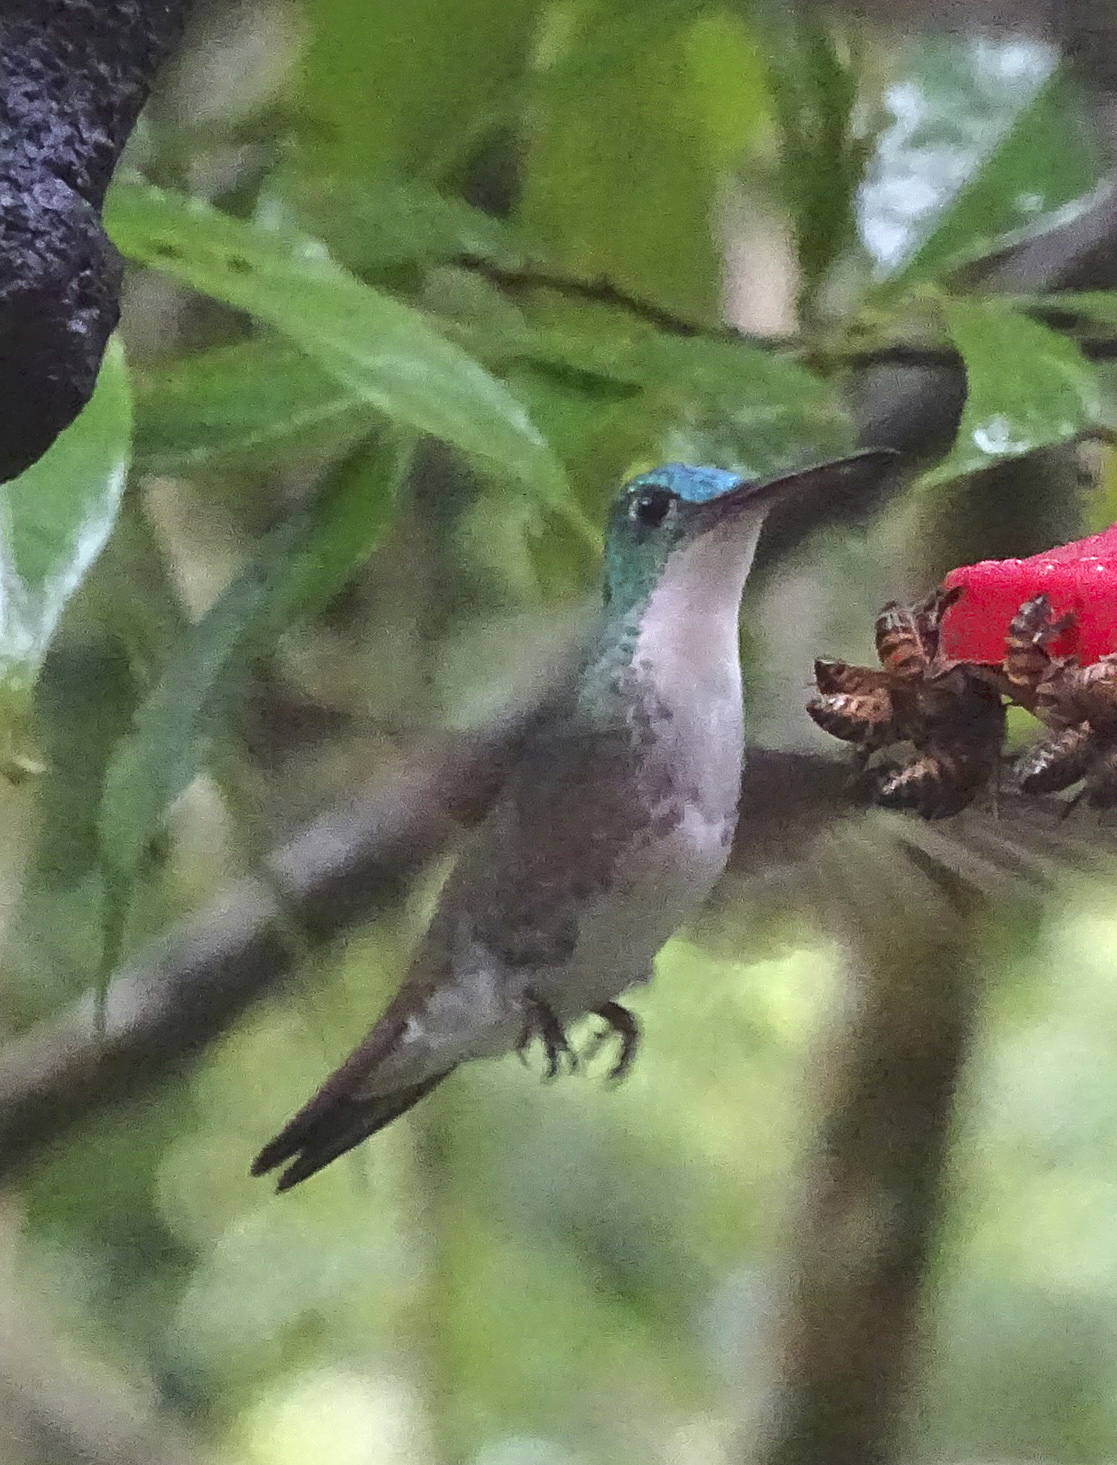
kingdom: Animalia
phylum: Chordata
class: Aves
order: Apodiformes
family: Trochilidae
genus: Uranomitra
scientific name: Uranomitra franciae
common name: Andean emerald
